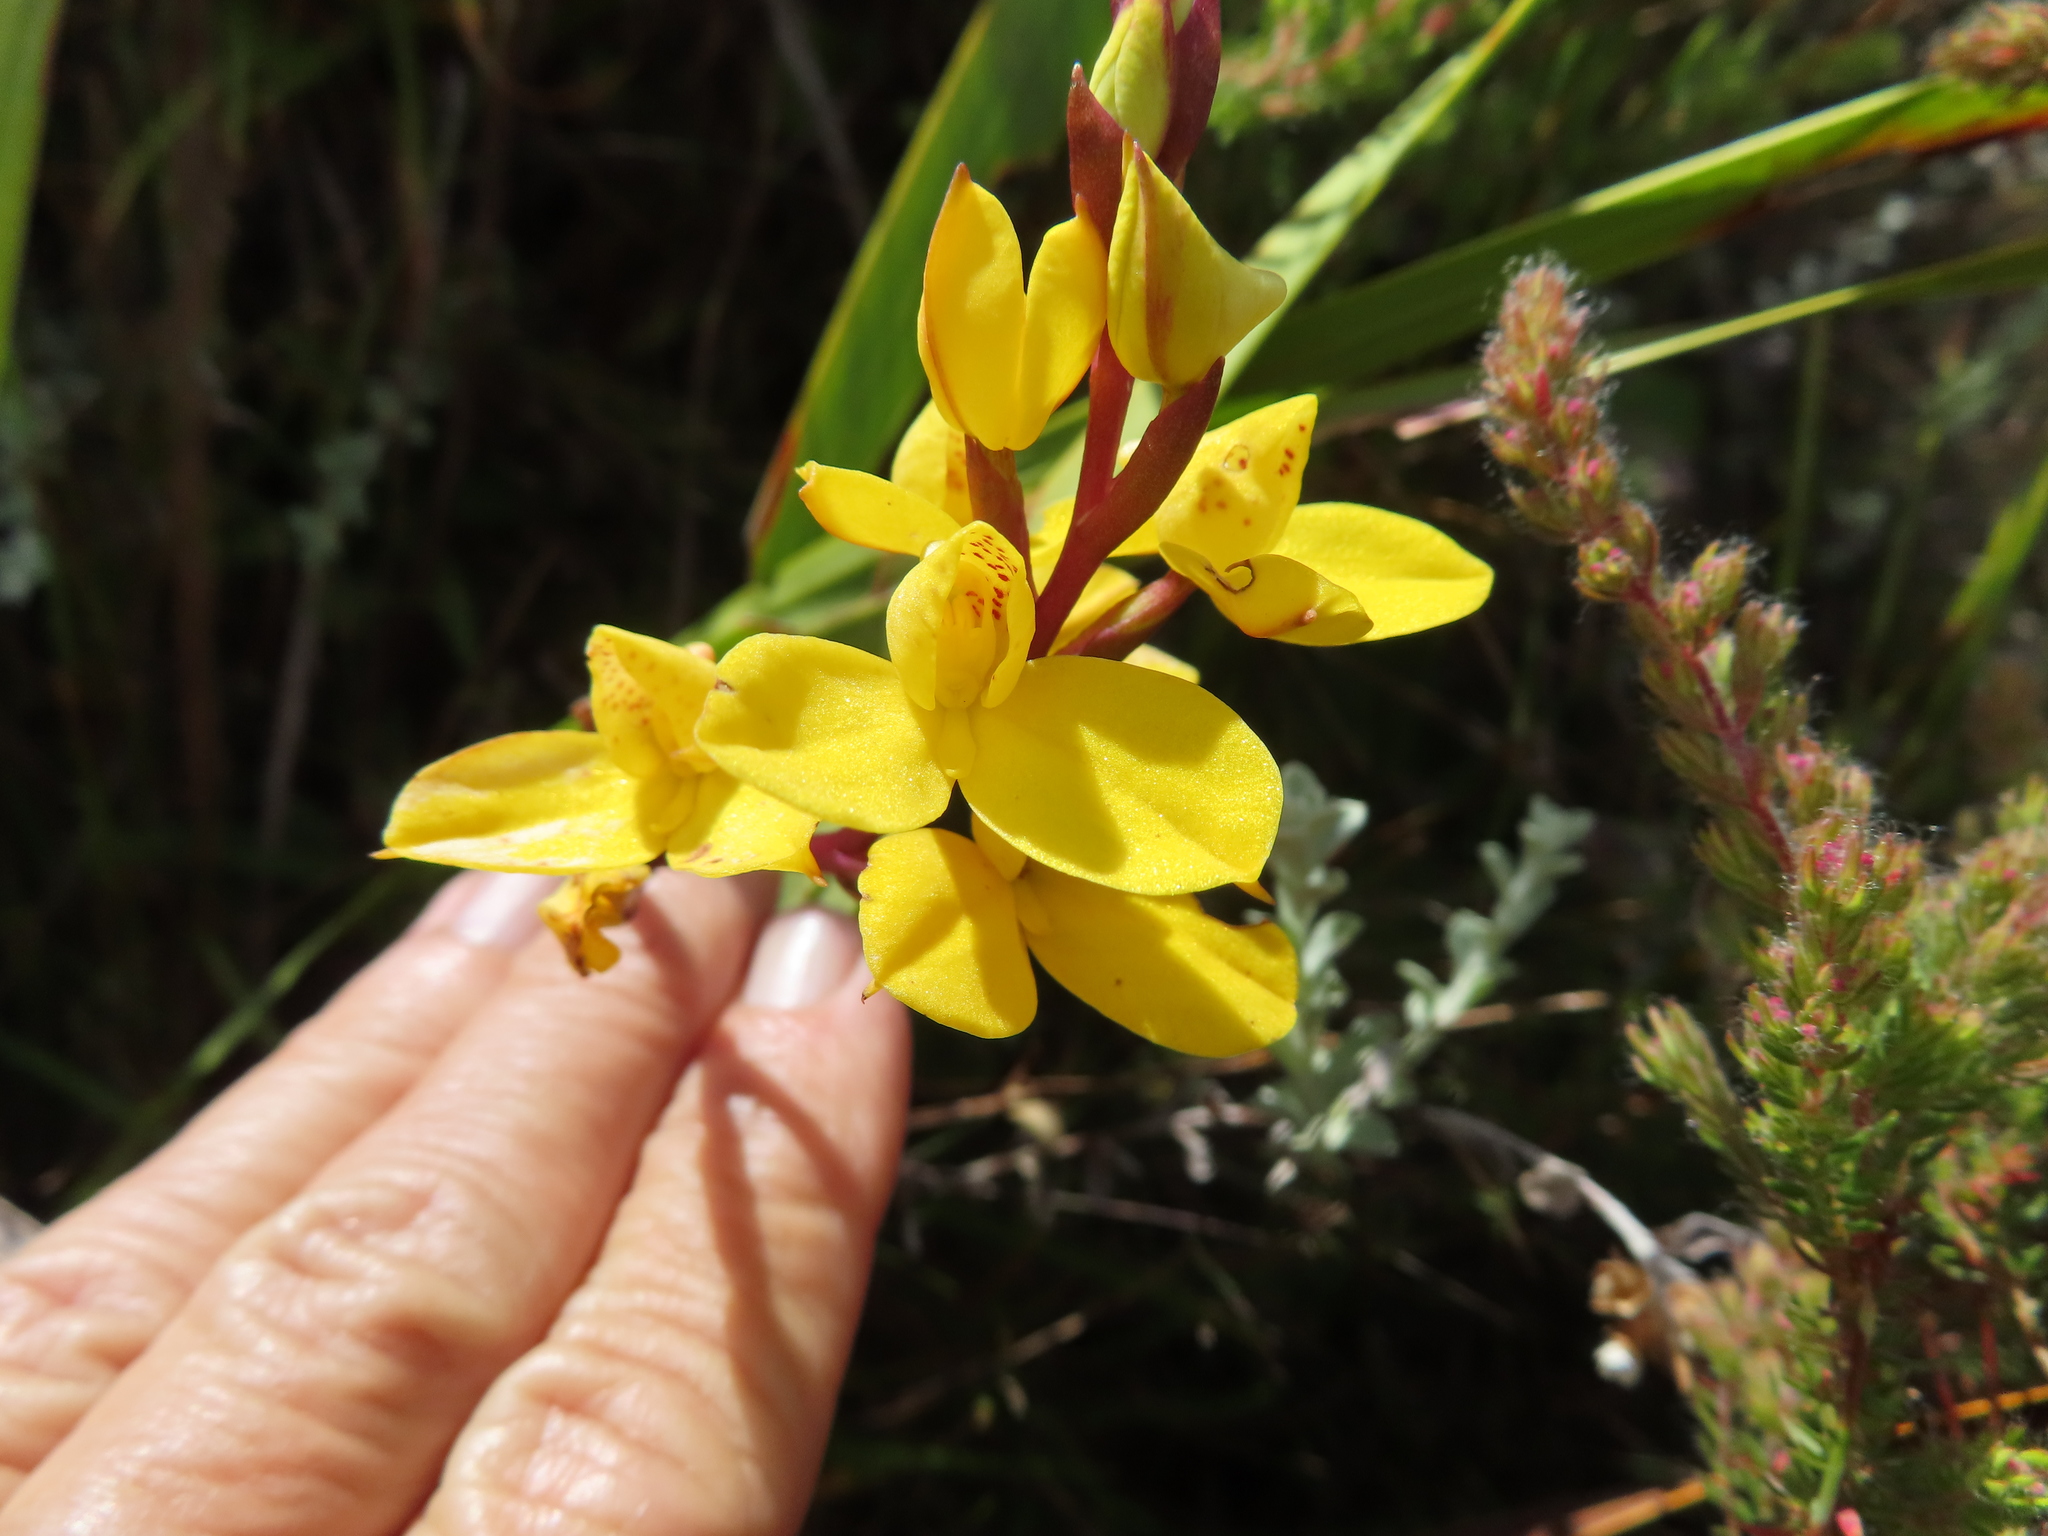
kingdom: Plantae
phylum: Tracheophyta
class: Liliopsida
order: Asparagales
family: Orchidaceae
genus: Disa
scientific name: Disa aurata
